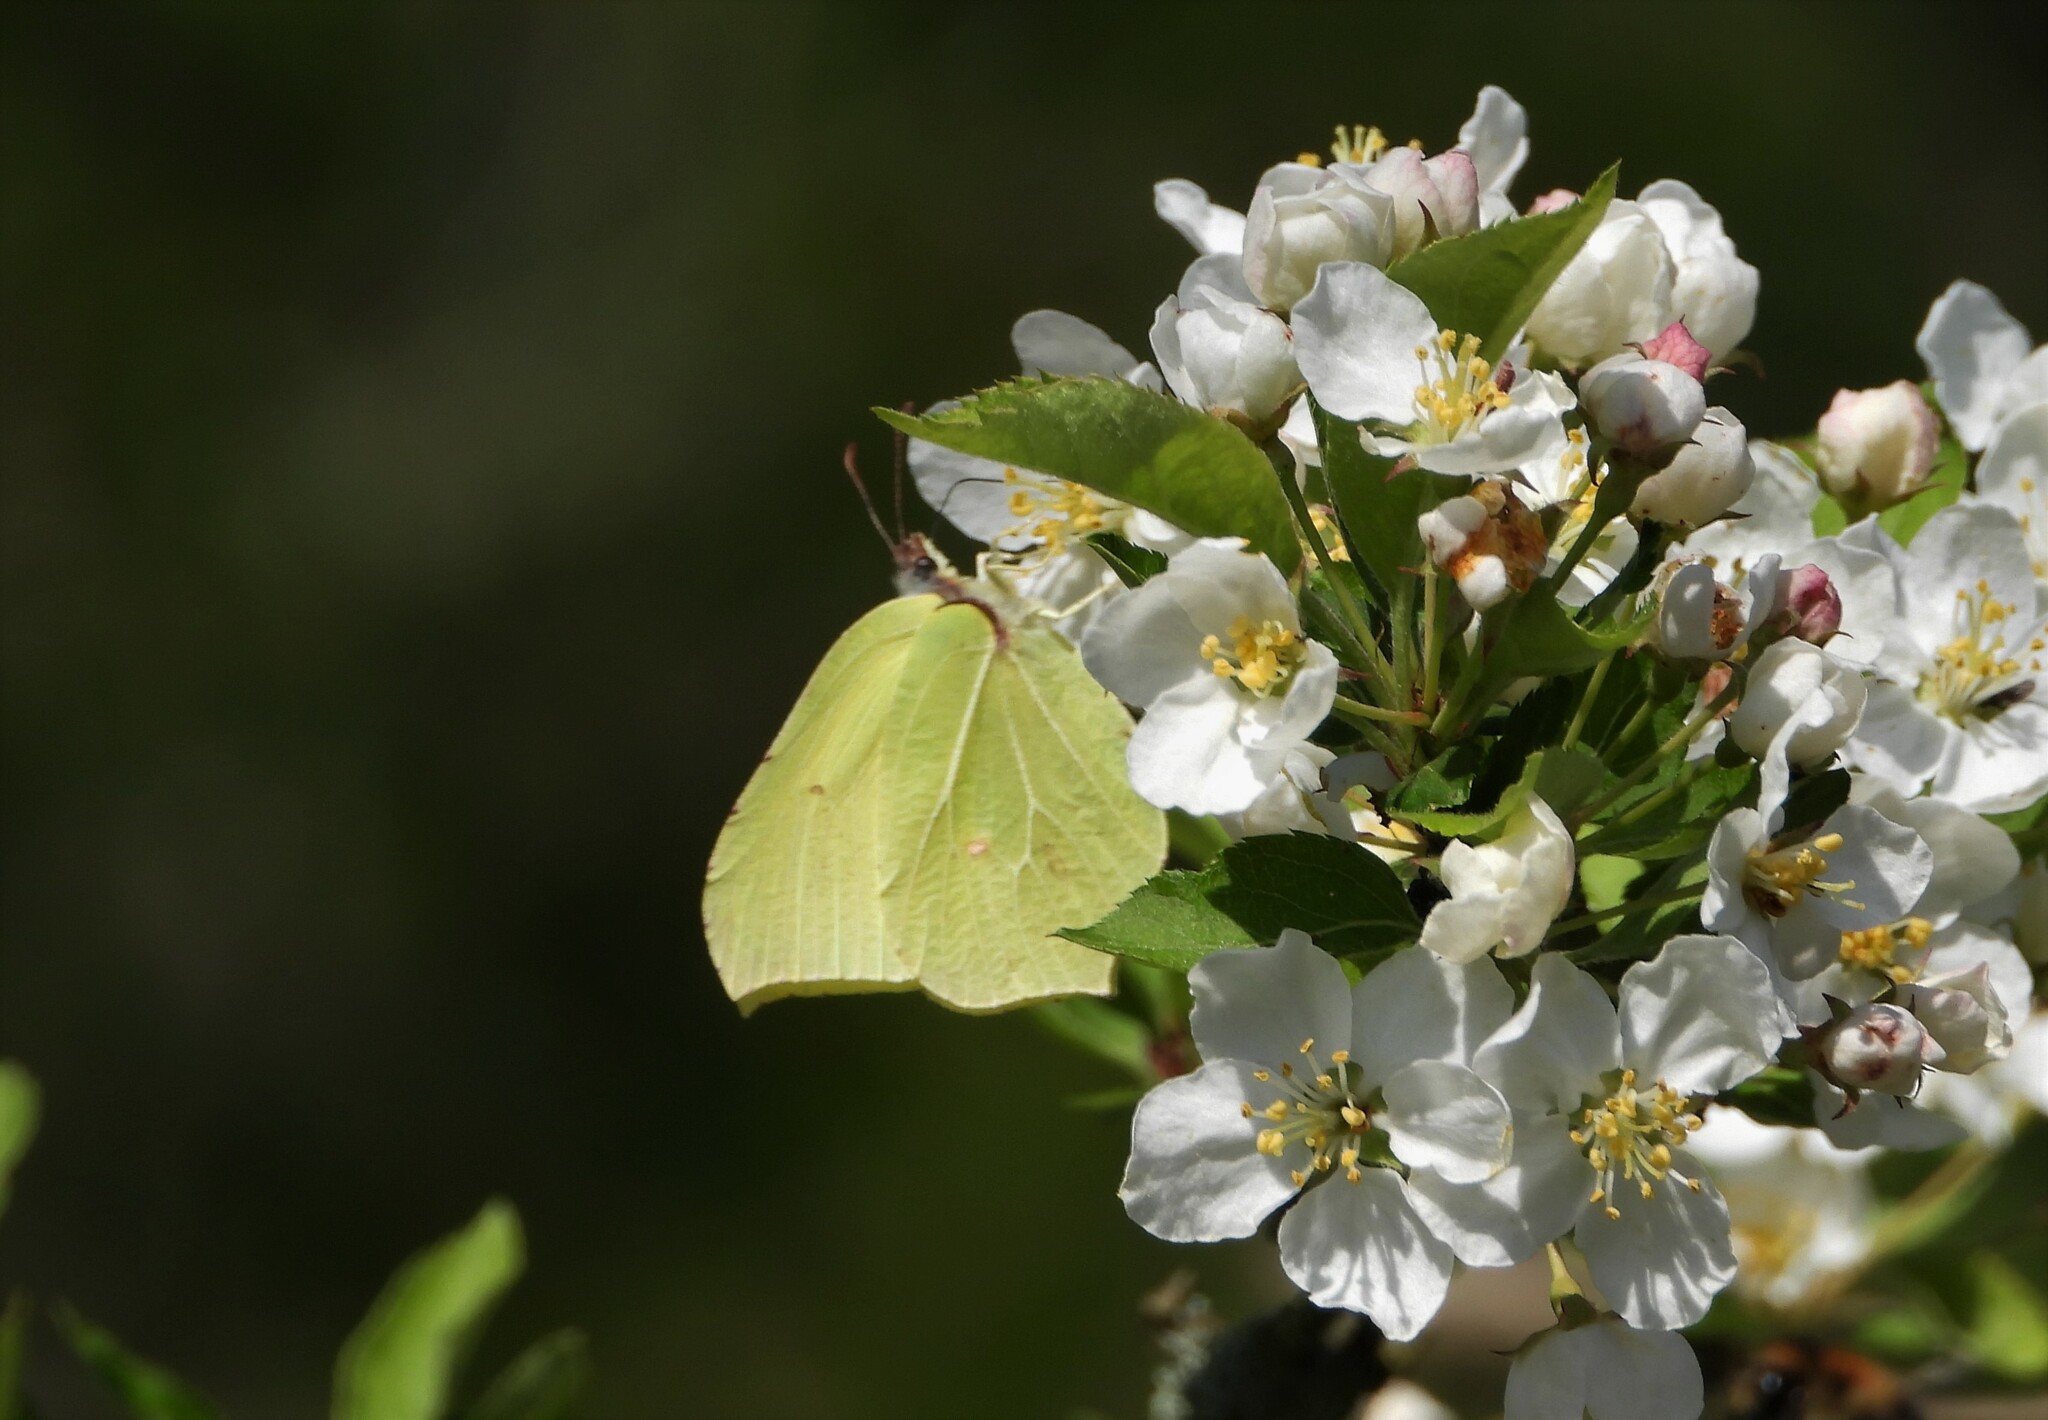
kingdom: Animalia
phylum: Arthropoda
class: Insecta
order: Lepidoptera
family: Pieridae
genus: Gonepteryx
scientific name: Gonepteryx rhamni
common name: Brimstone
